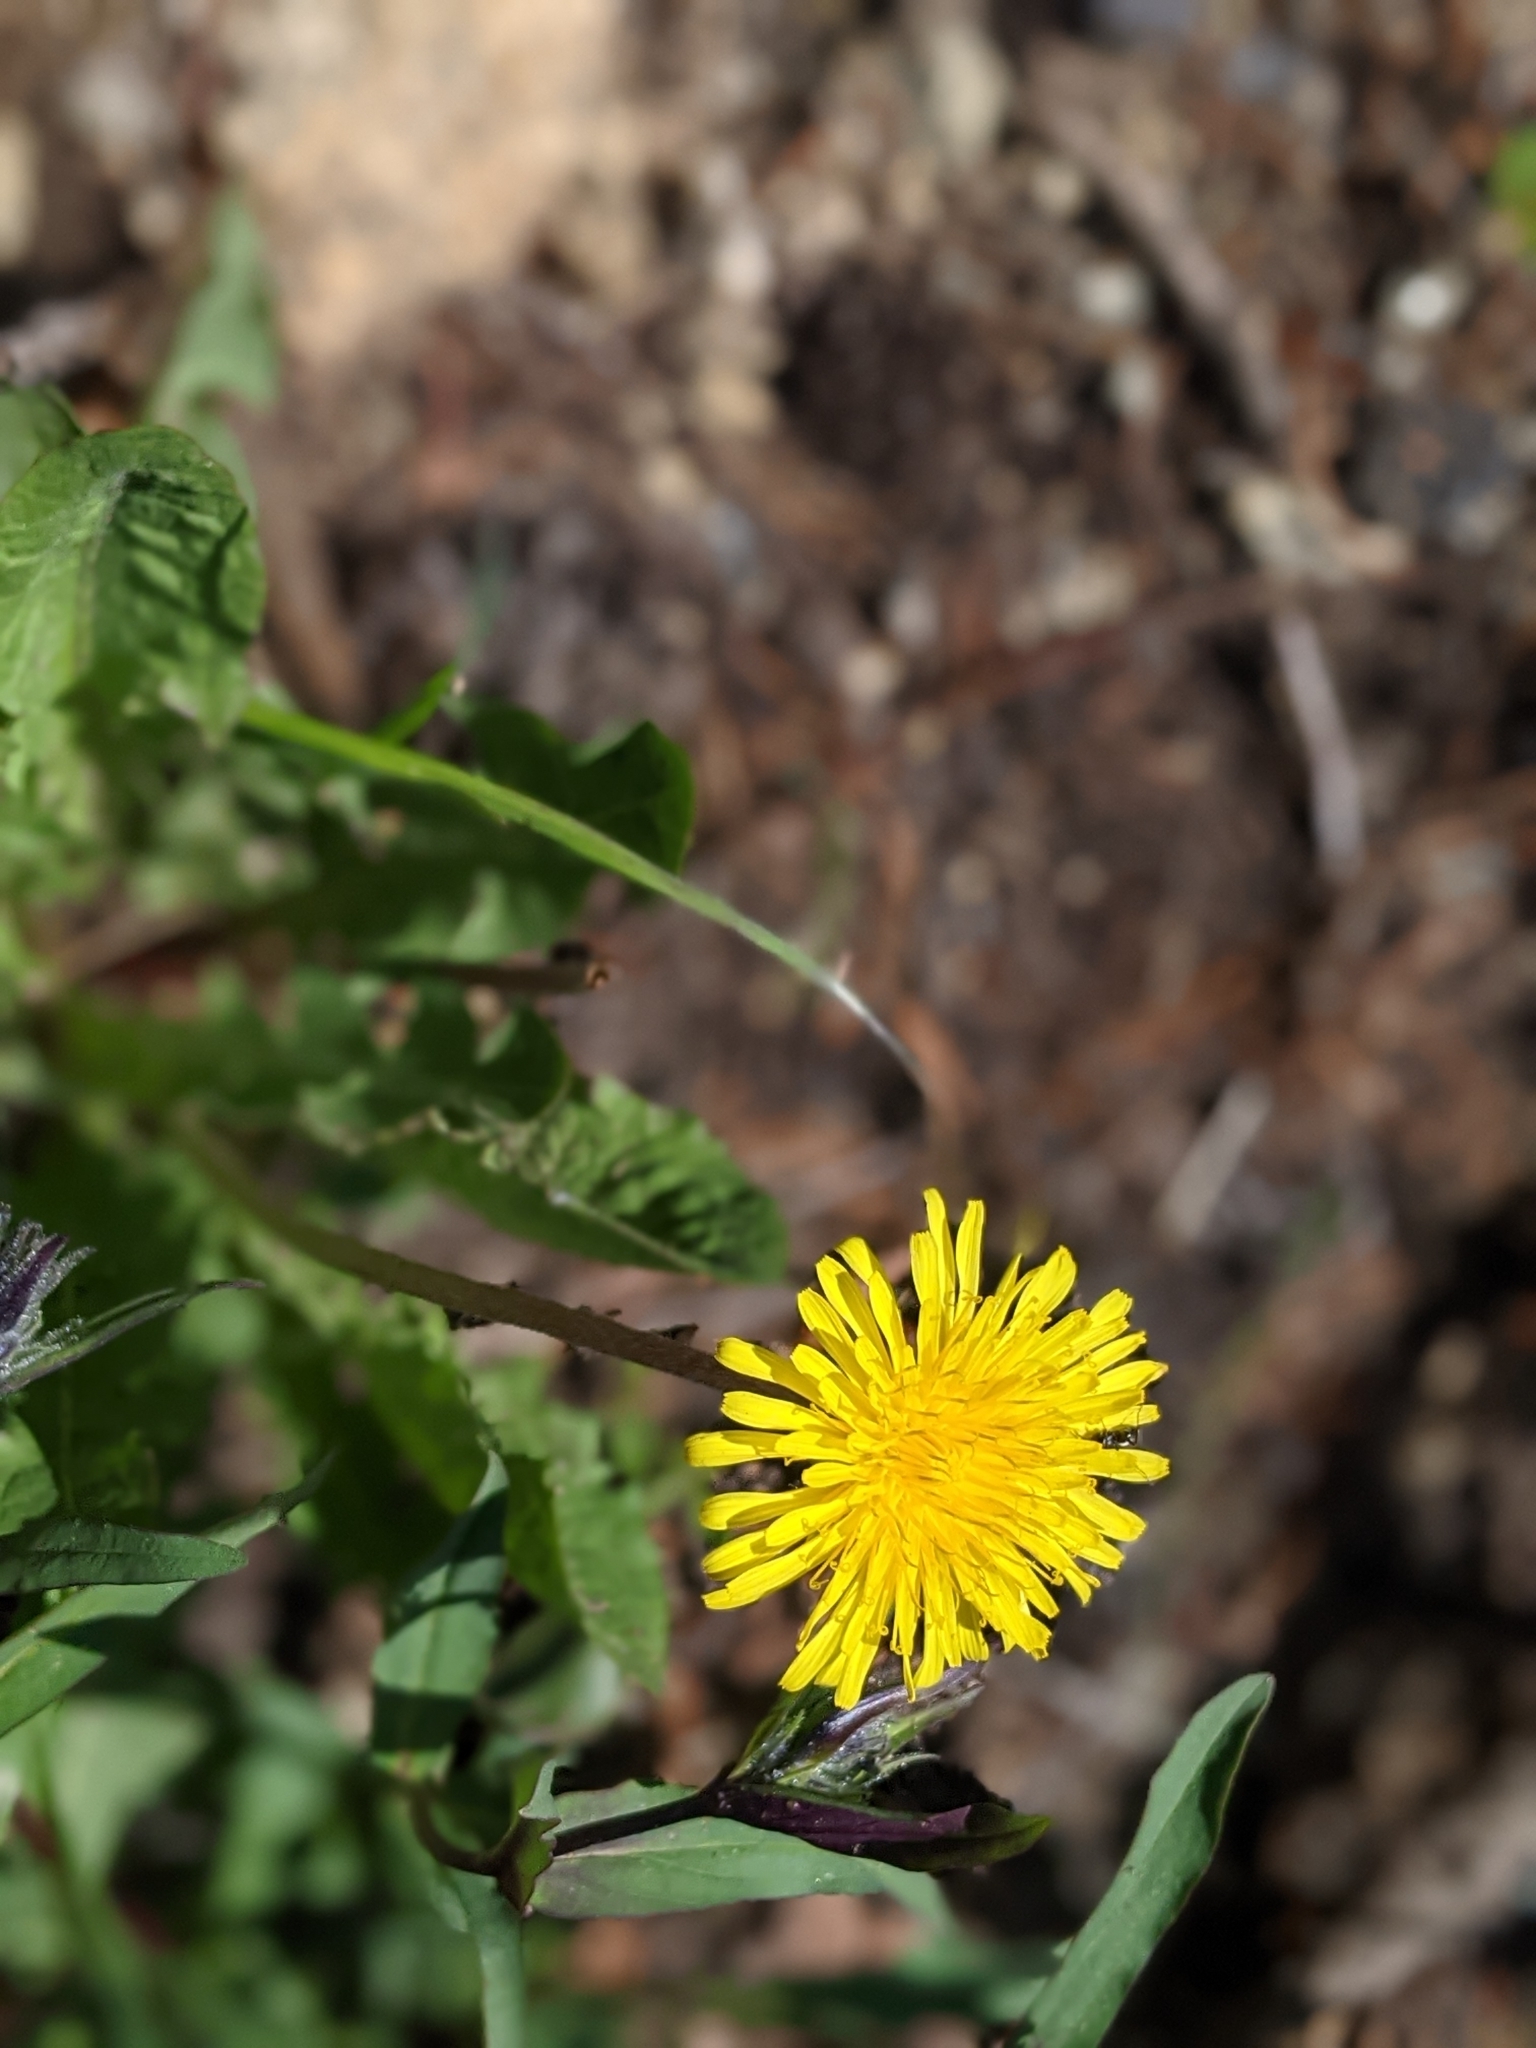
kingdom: Plantae
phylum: Tracheophyta
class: Magnoliopsida
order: Asterales
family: Asteraceae
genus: Taraxacum
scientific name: Taraxacum officinale
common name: Common dandelion
